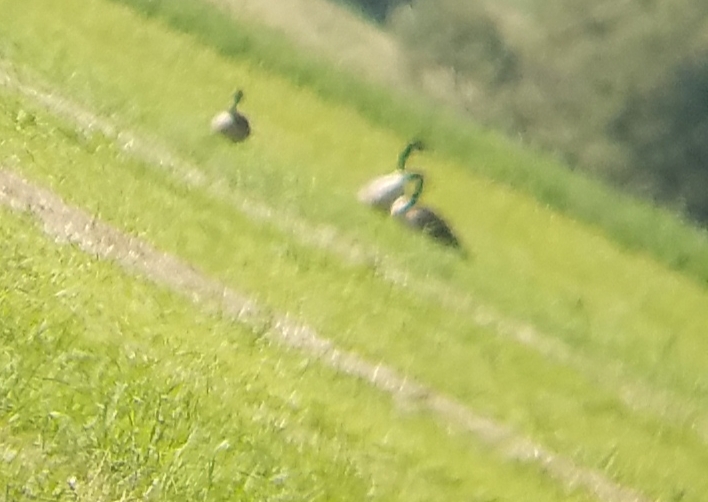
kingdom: Animalia
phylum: Chordata
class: Aves
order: Anseriformes
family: Anatidae
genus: Branta
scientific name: Branta canadensis
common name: Canada goose
